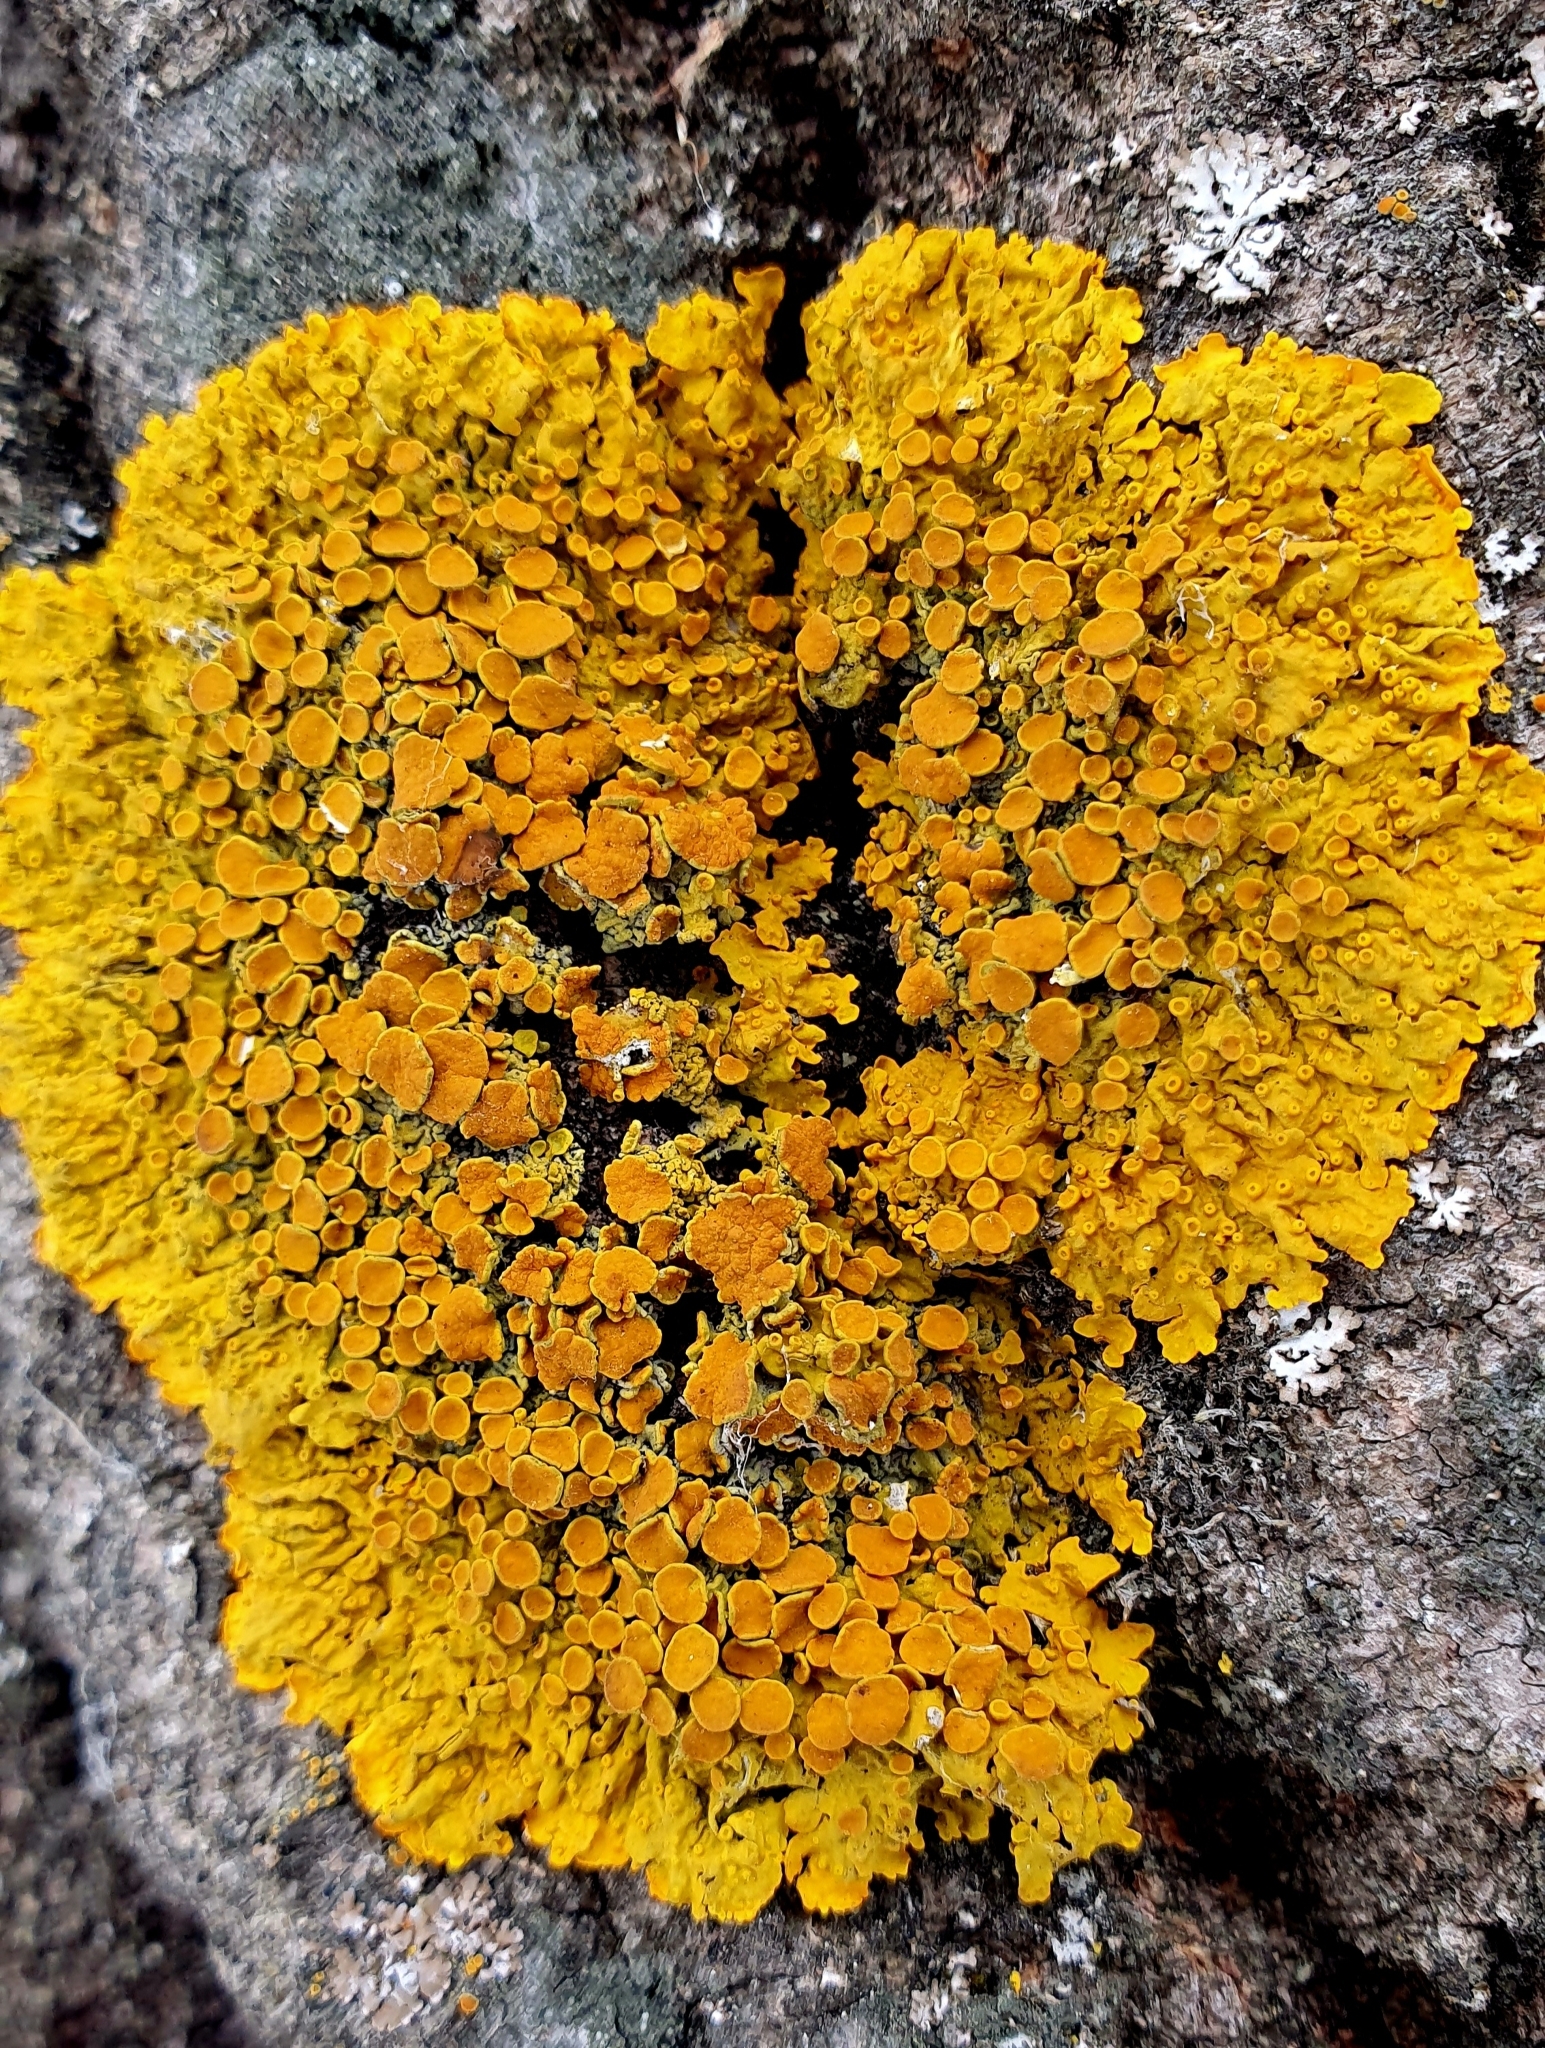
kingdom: Fungi
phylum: Ascomycota
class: Lecanoromycetes
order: Teloschistales
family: Teloschistaceae
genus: Xanthoria
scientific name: Xanthoria parietina
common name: Common orange lichen
